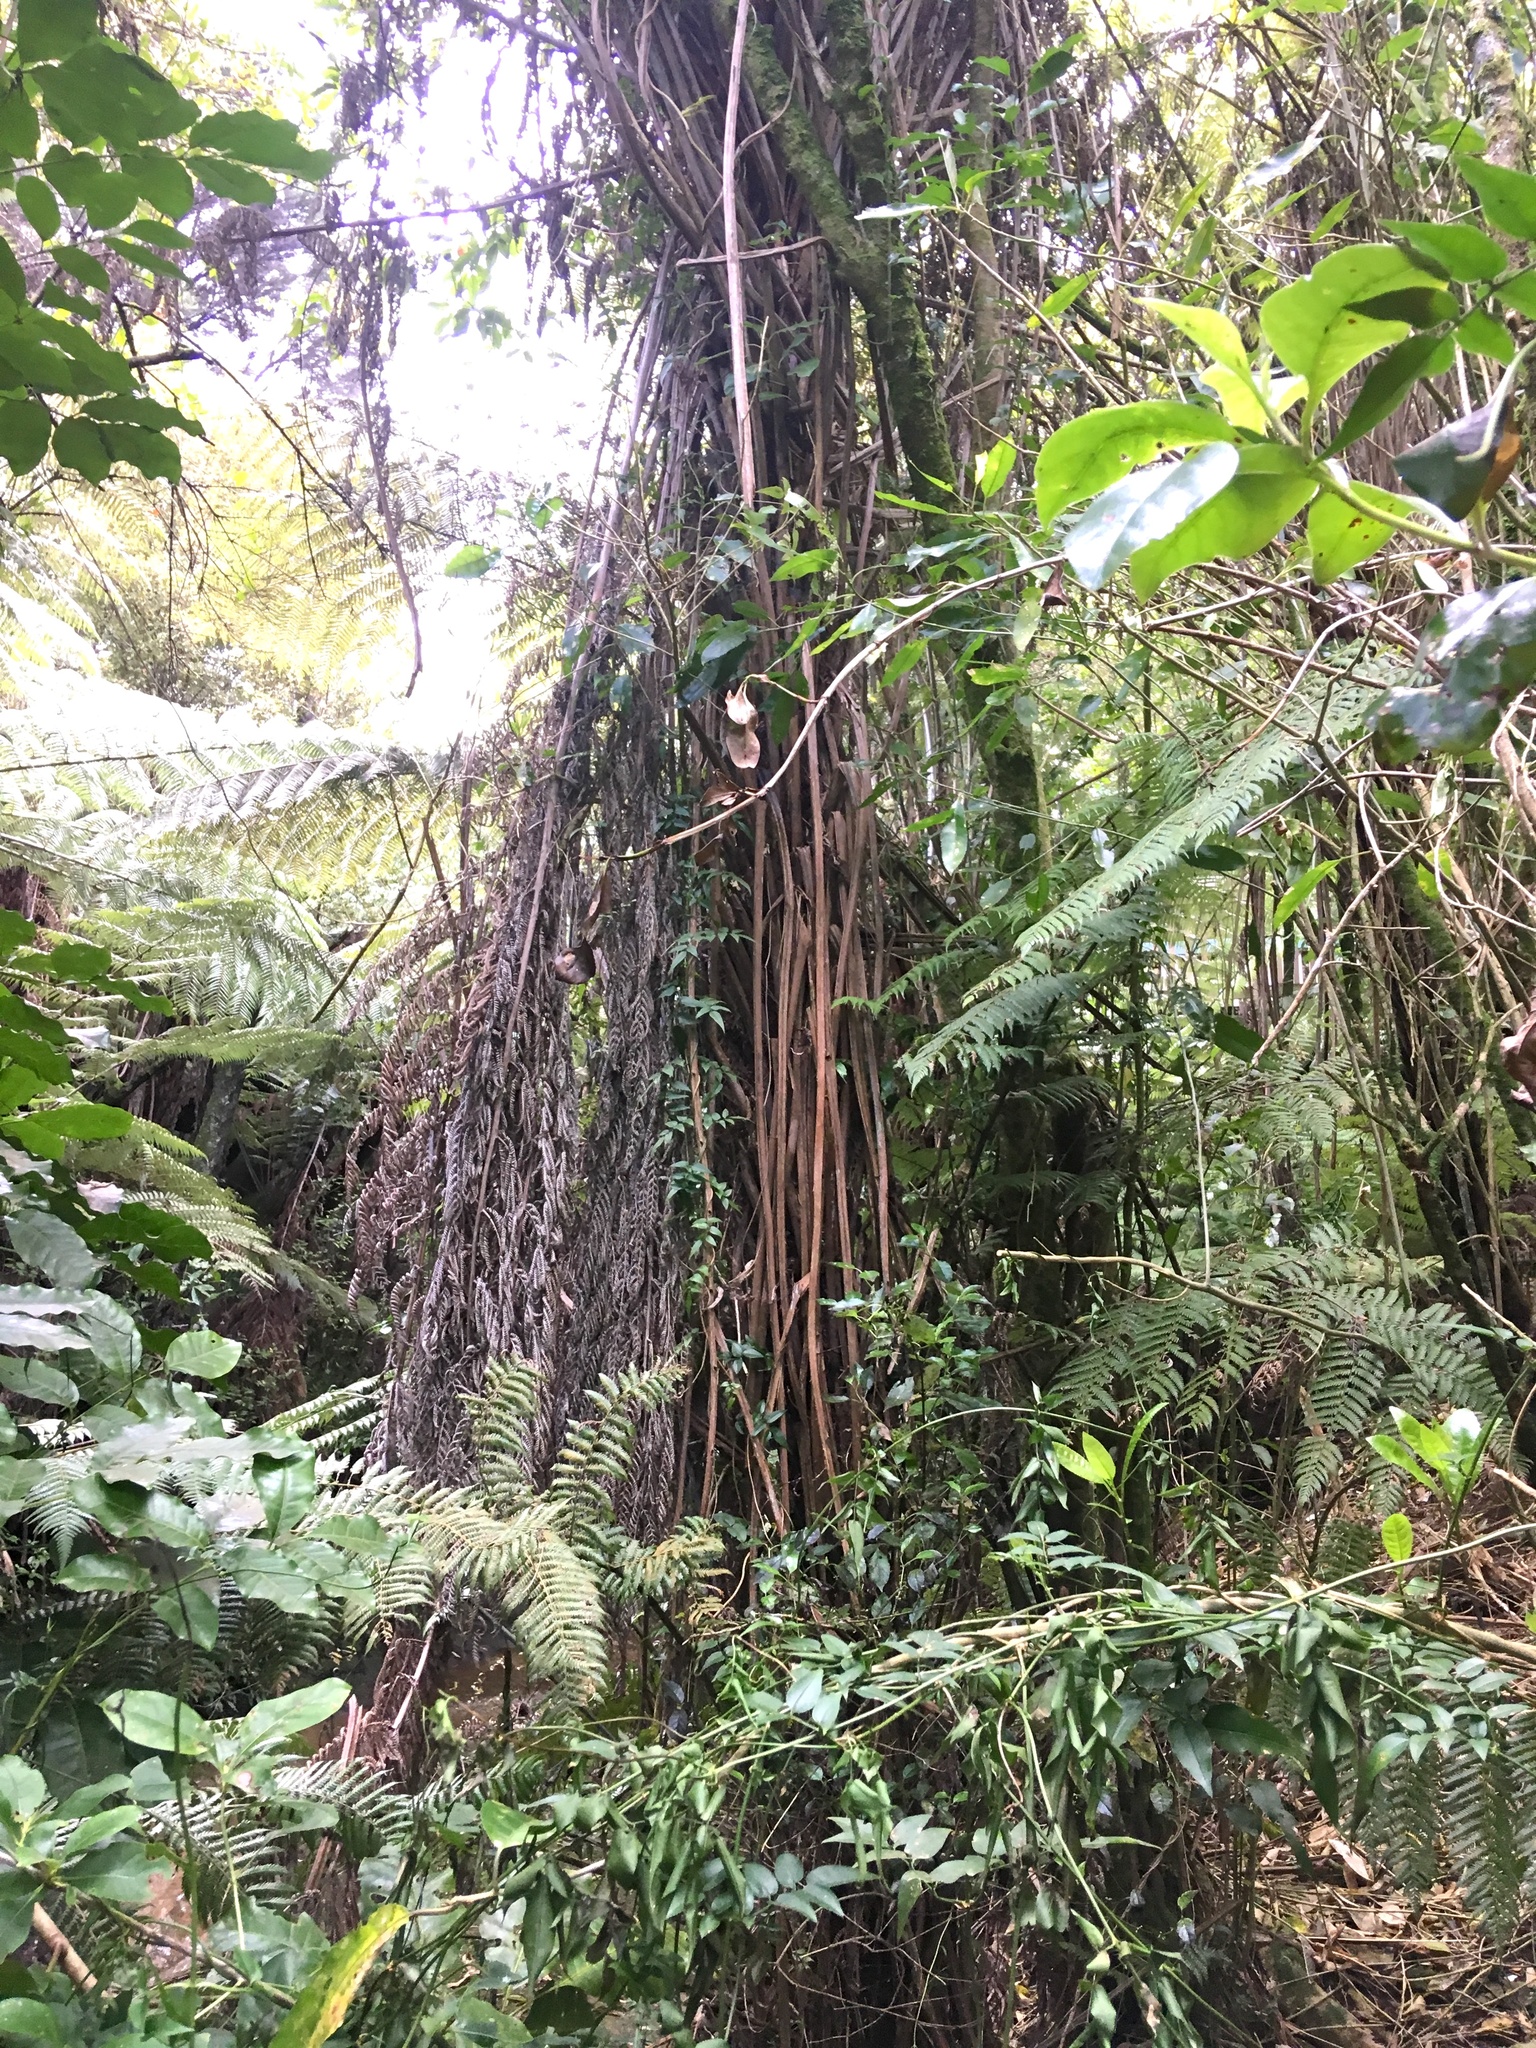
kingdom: Plantae
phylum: Tracheophyta
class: Polypodiopsida
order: Cyatheales
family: Cyatheaceae
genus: Alsophila
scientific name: Alsophila dealbata
